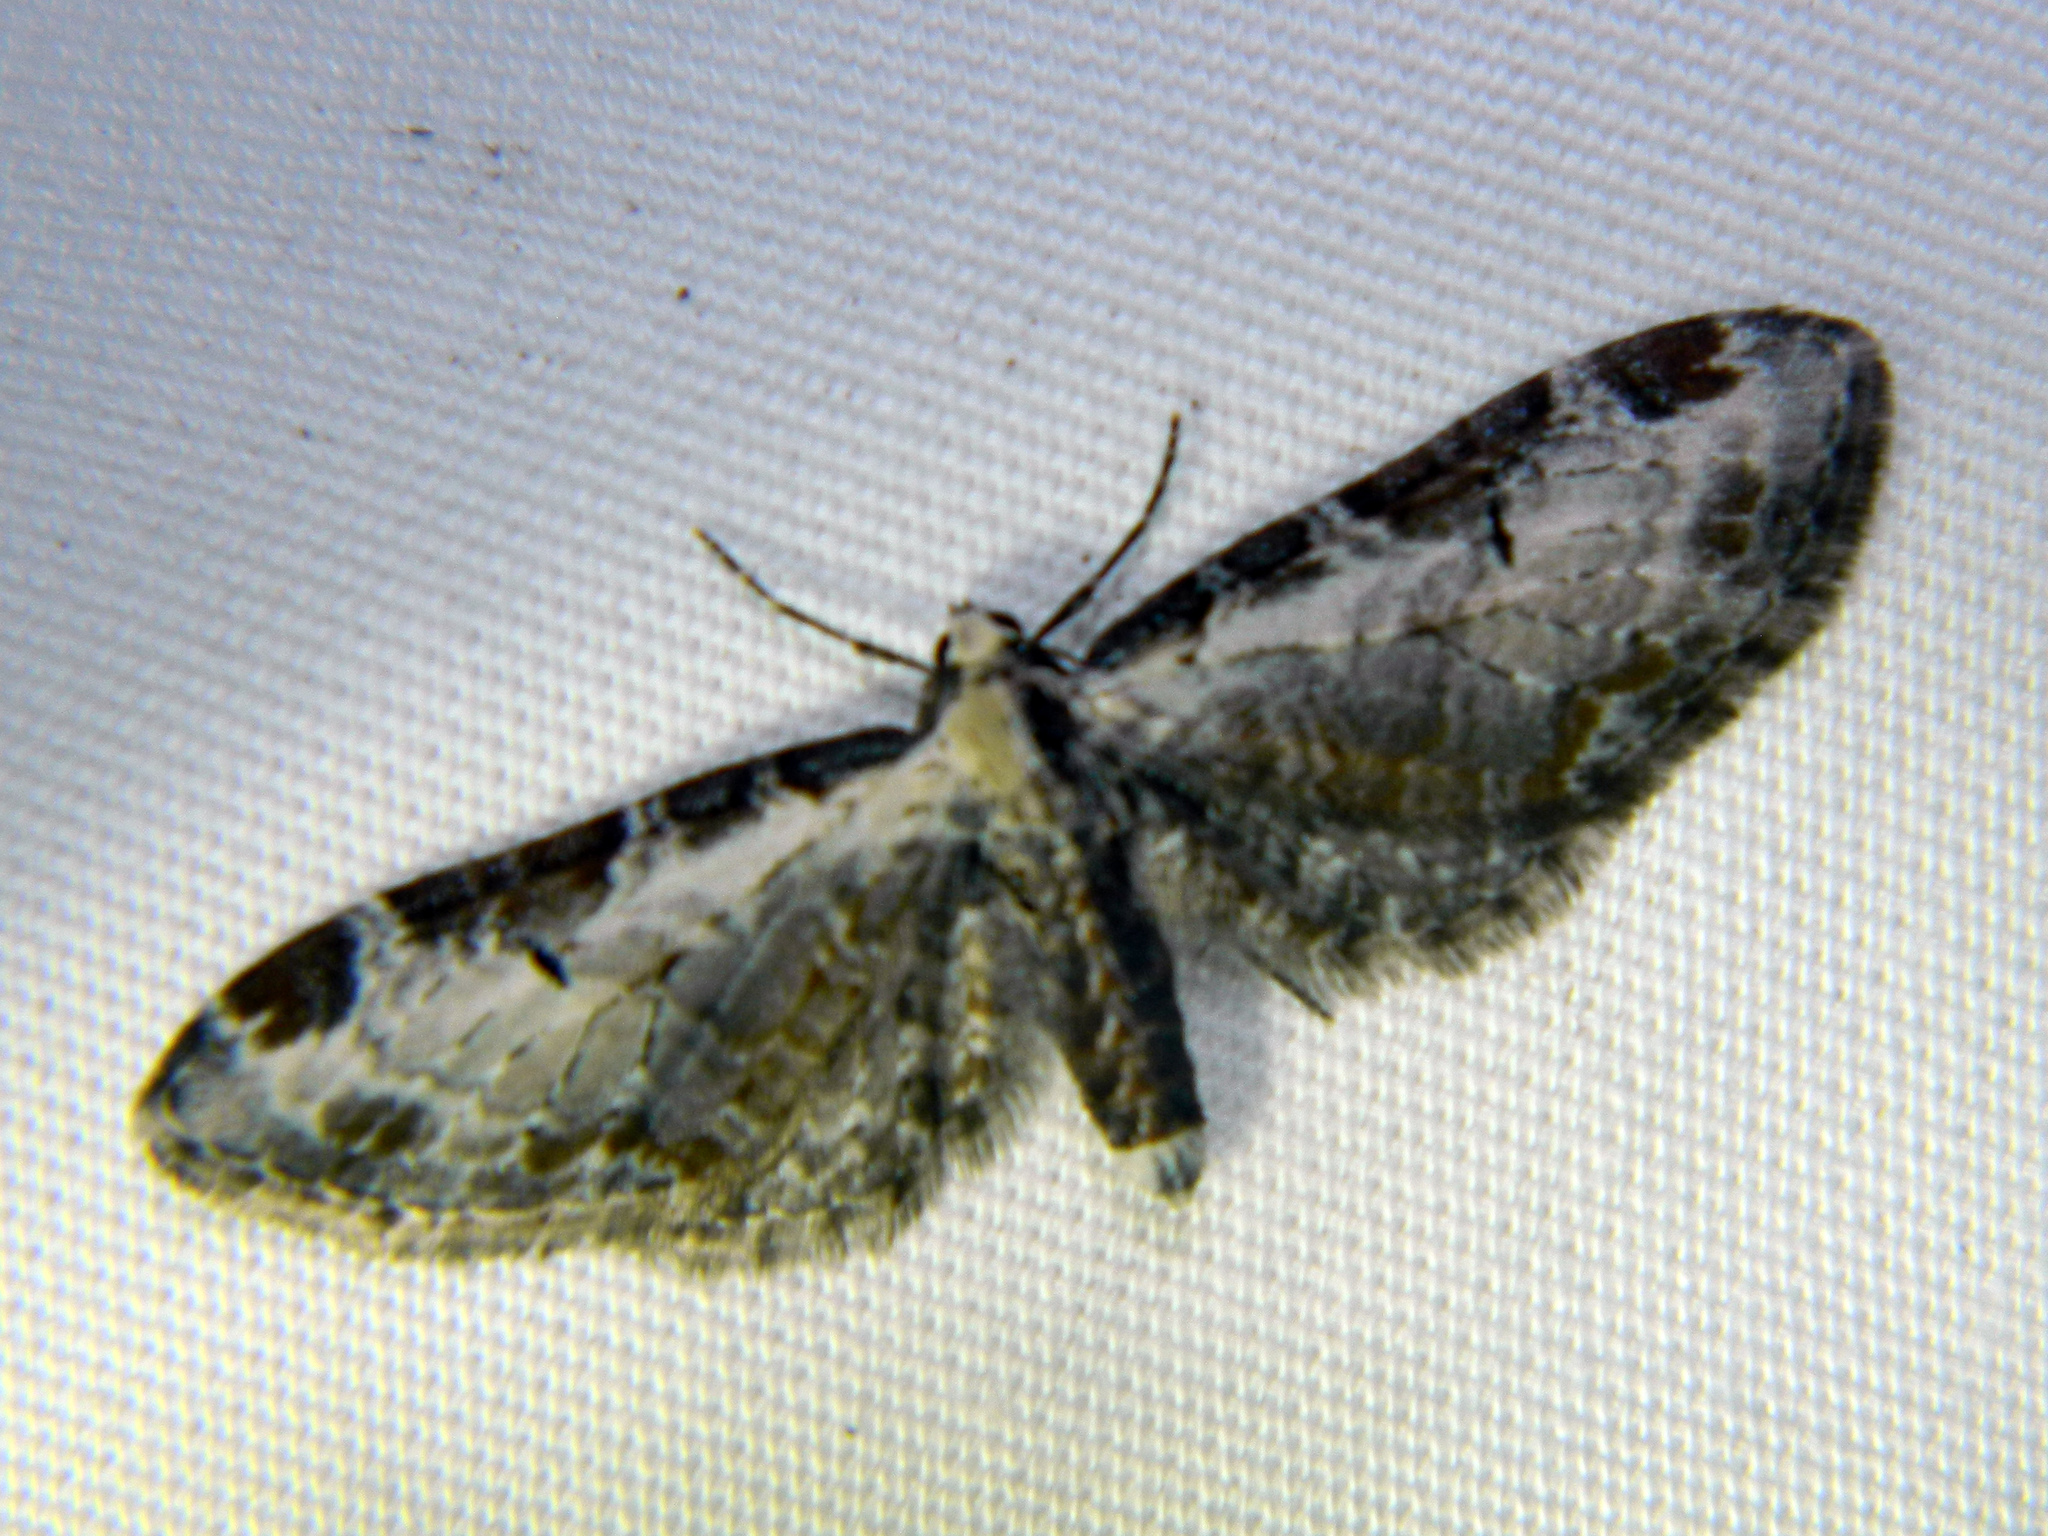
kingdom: Animalia
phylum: Arthropoda
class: Insecta
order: Lepidoptera
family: Geometridae
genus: Eupithecia
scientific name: Eupithecia ravocostaliata
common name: Great varigated pug
